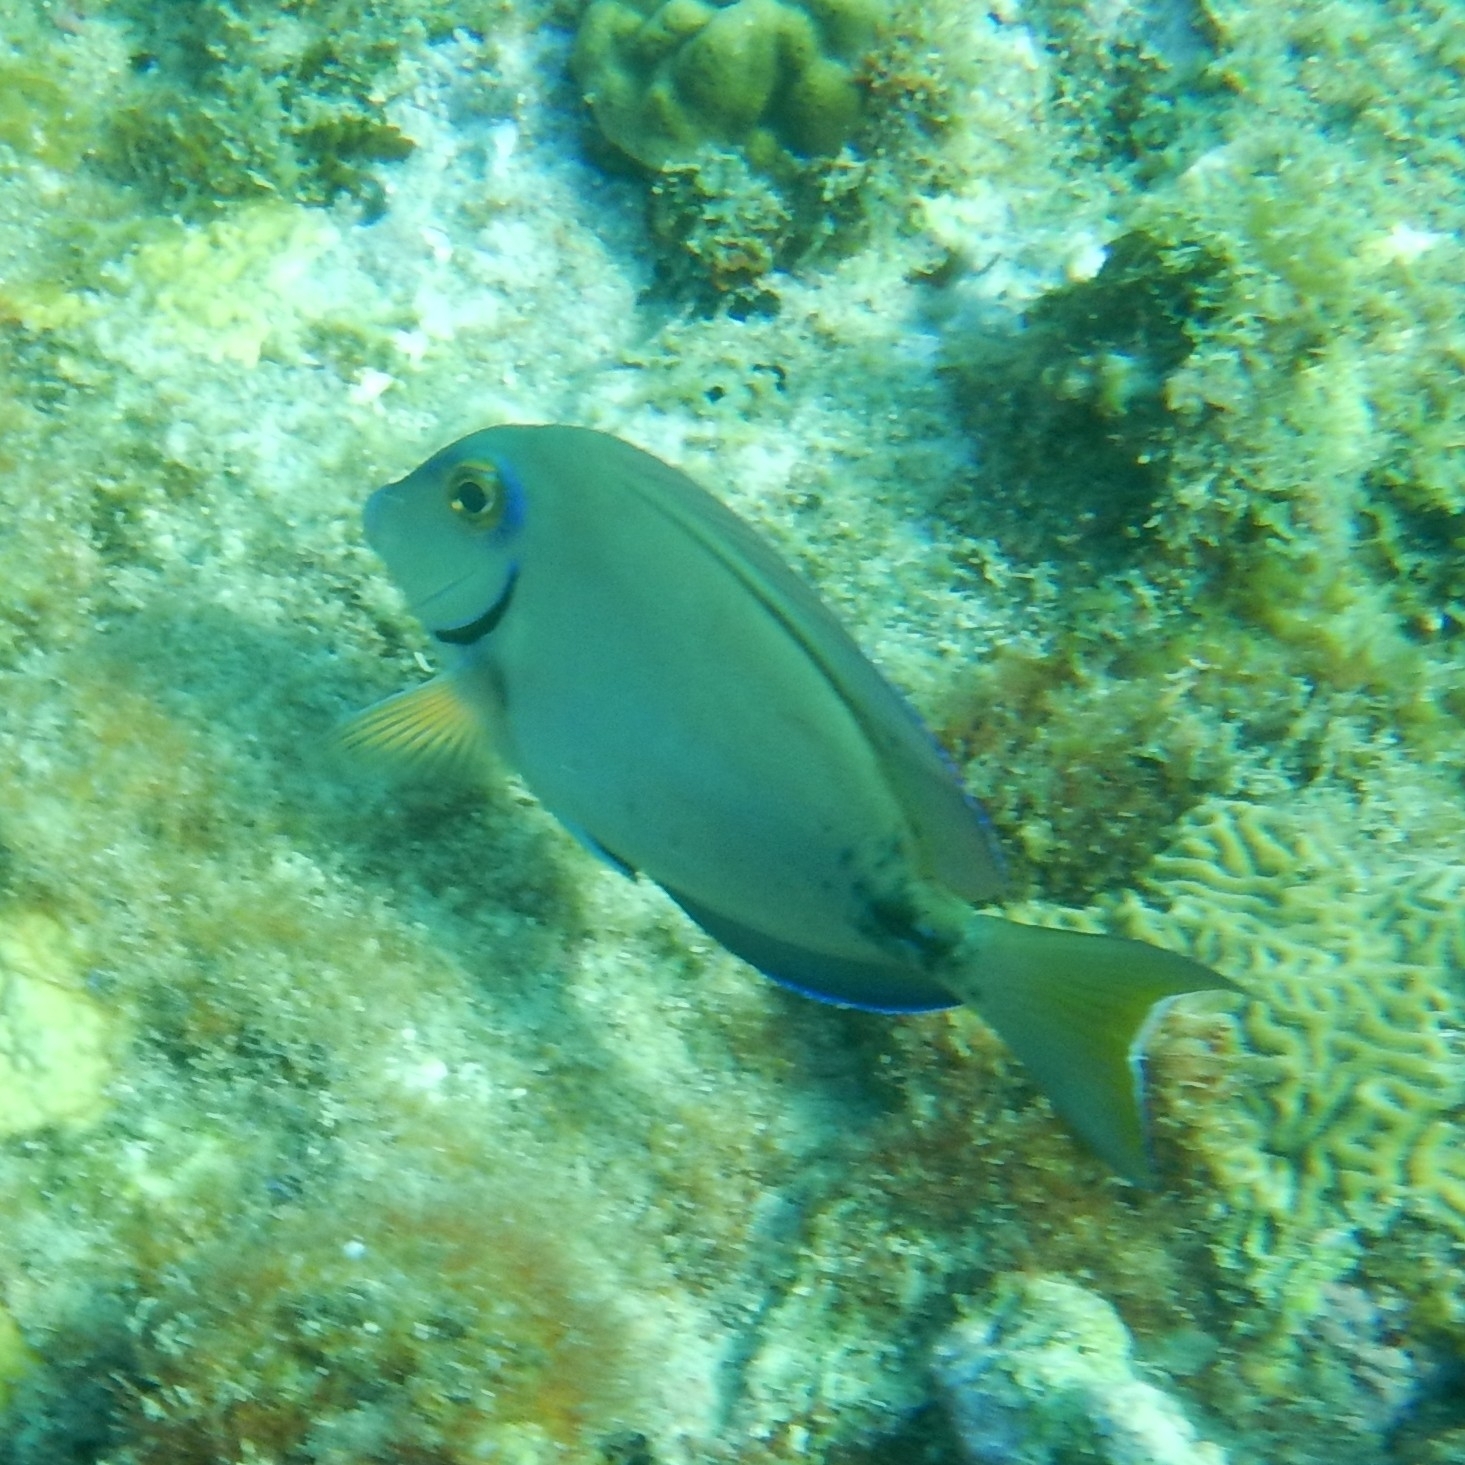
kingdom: Animalia
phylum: Chordata
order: Perciformes
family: Acanthuridae
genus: Acanthurus
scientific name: Acanthurus bahianus
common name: Ocean surgeon
